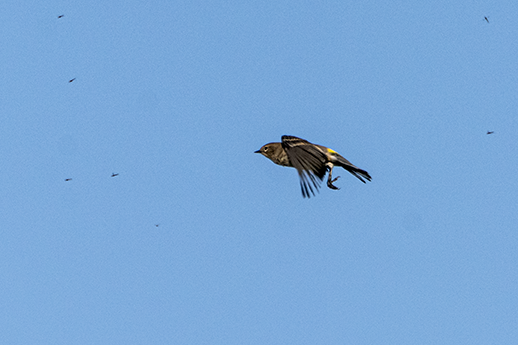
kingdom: Animalia
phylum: Chordata
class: Aves
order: Passeriformes
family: Parulidae
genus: Setophaga
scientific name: Setophaga coronata
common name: Myrtle warbler
